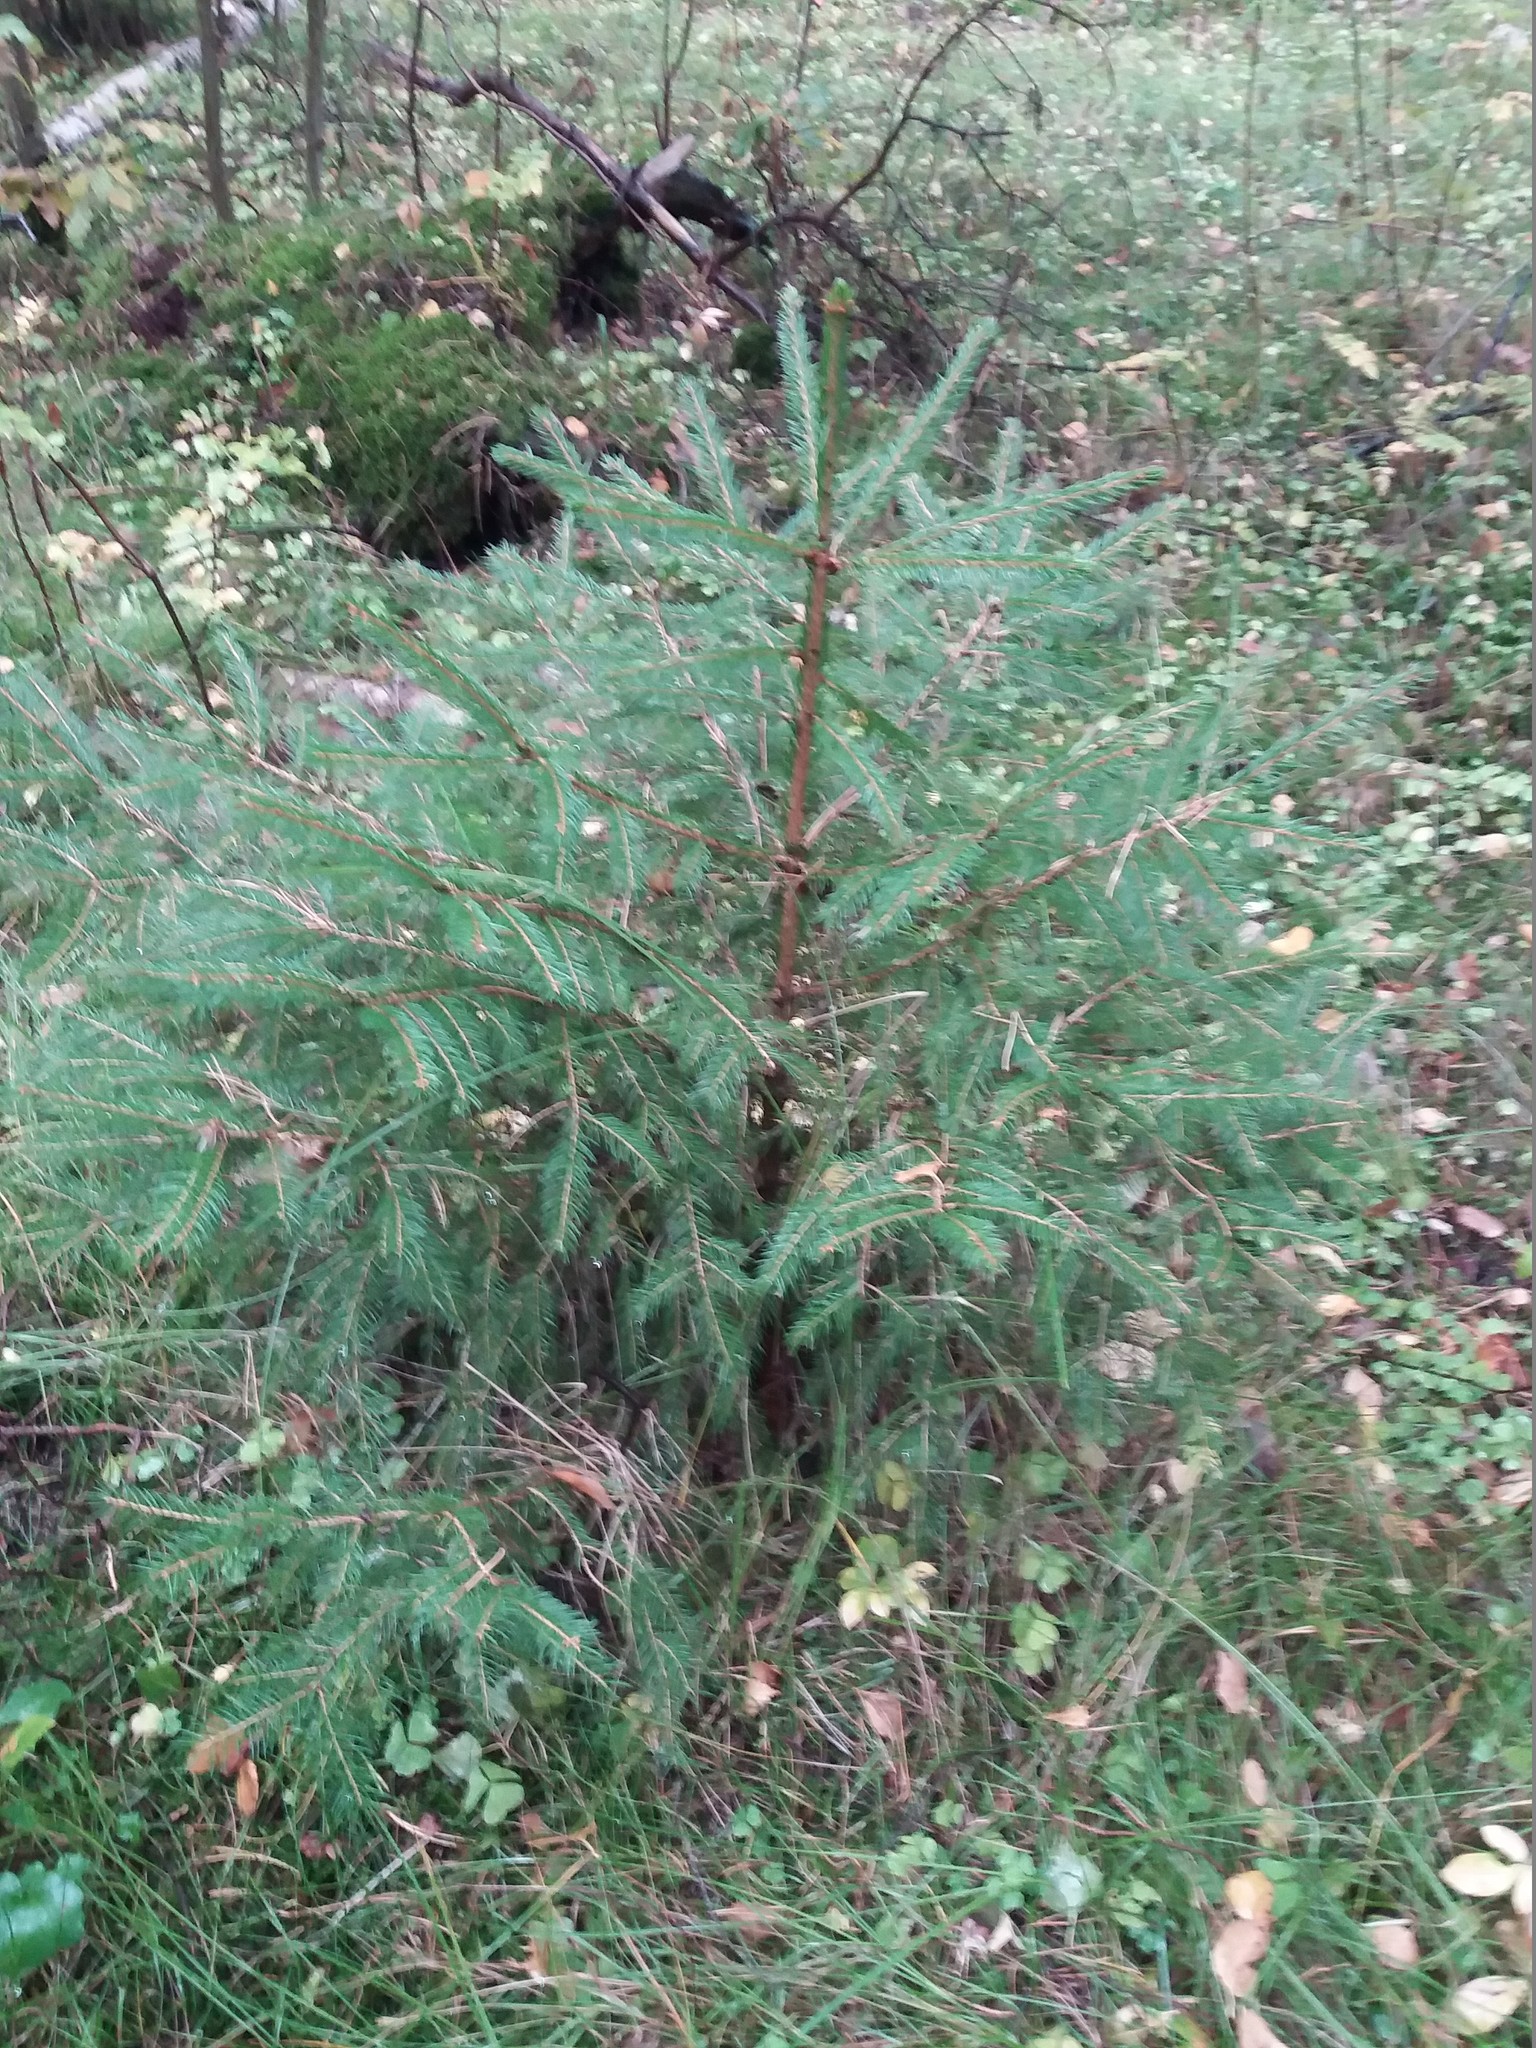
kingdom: Plantae
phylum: Tracheophyta
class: Pinopsida
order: Pinales
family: Pinaceae
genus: Picea
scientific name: Picea abies
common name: Norway spruce
